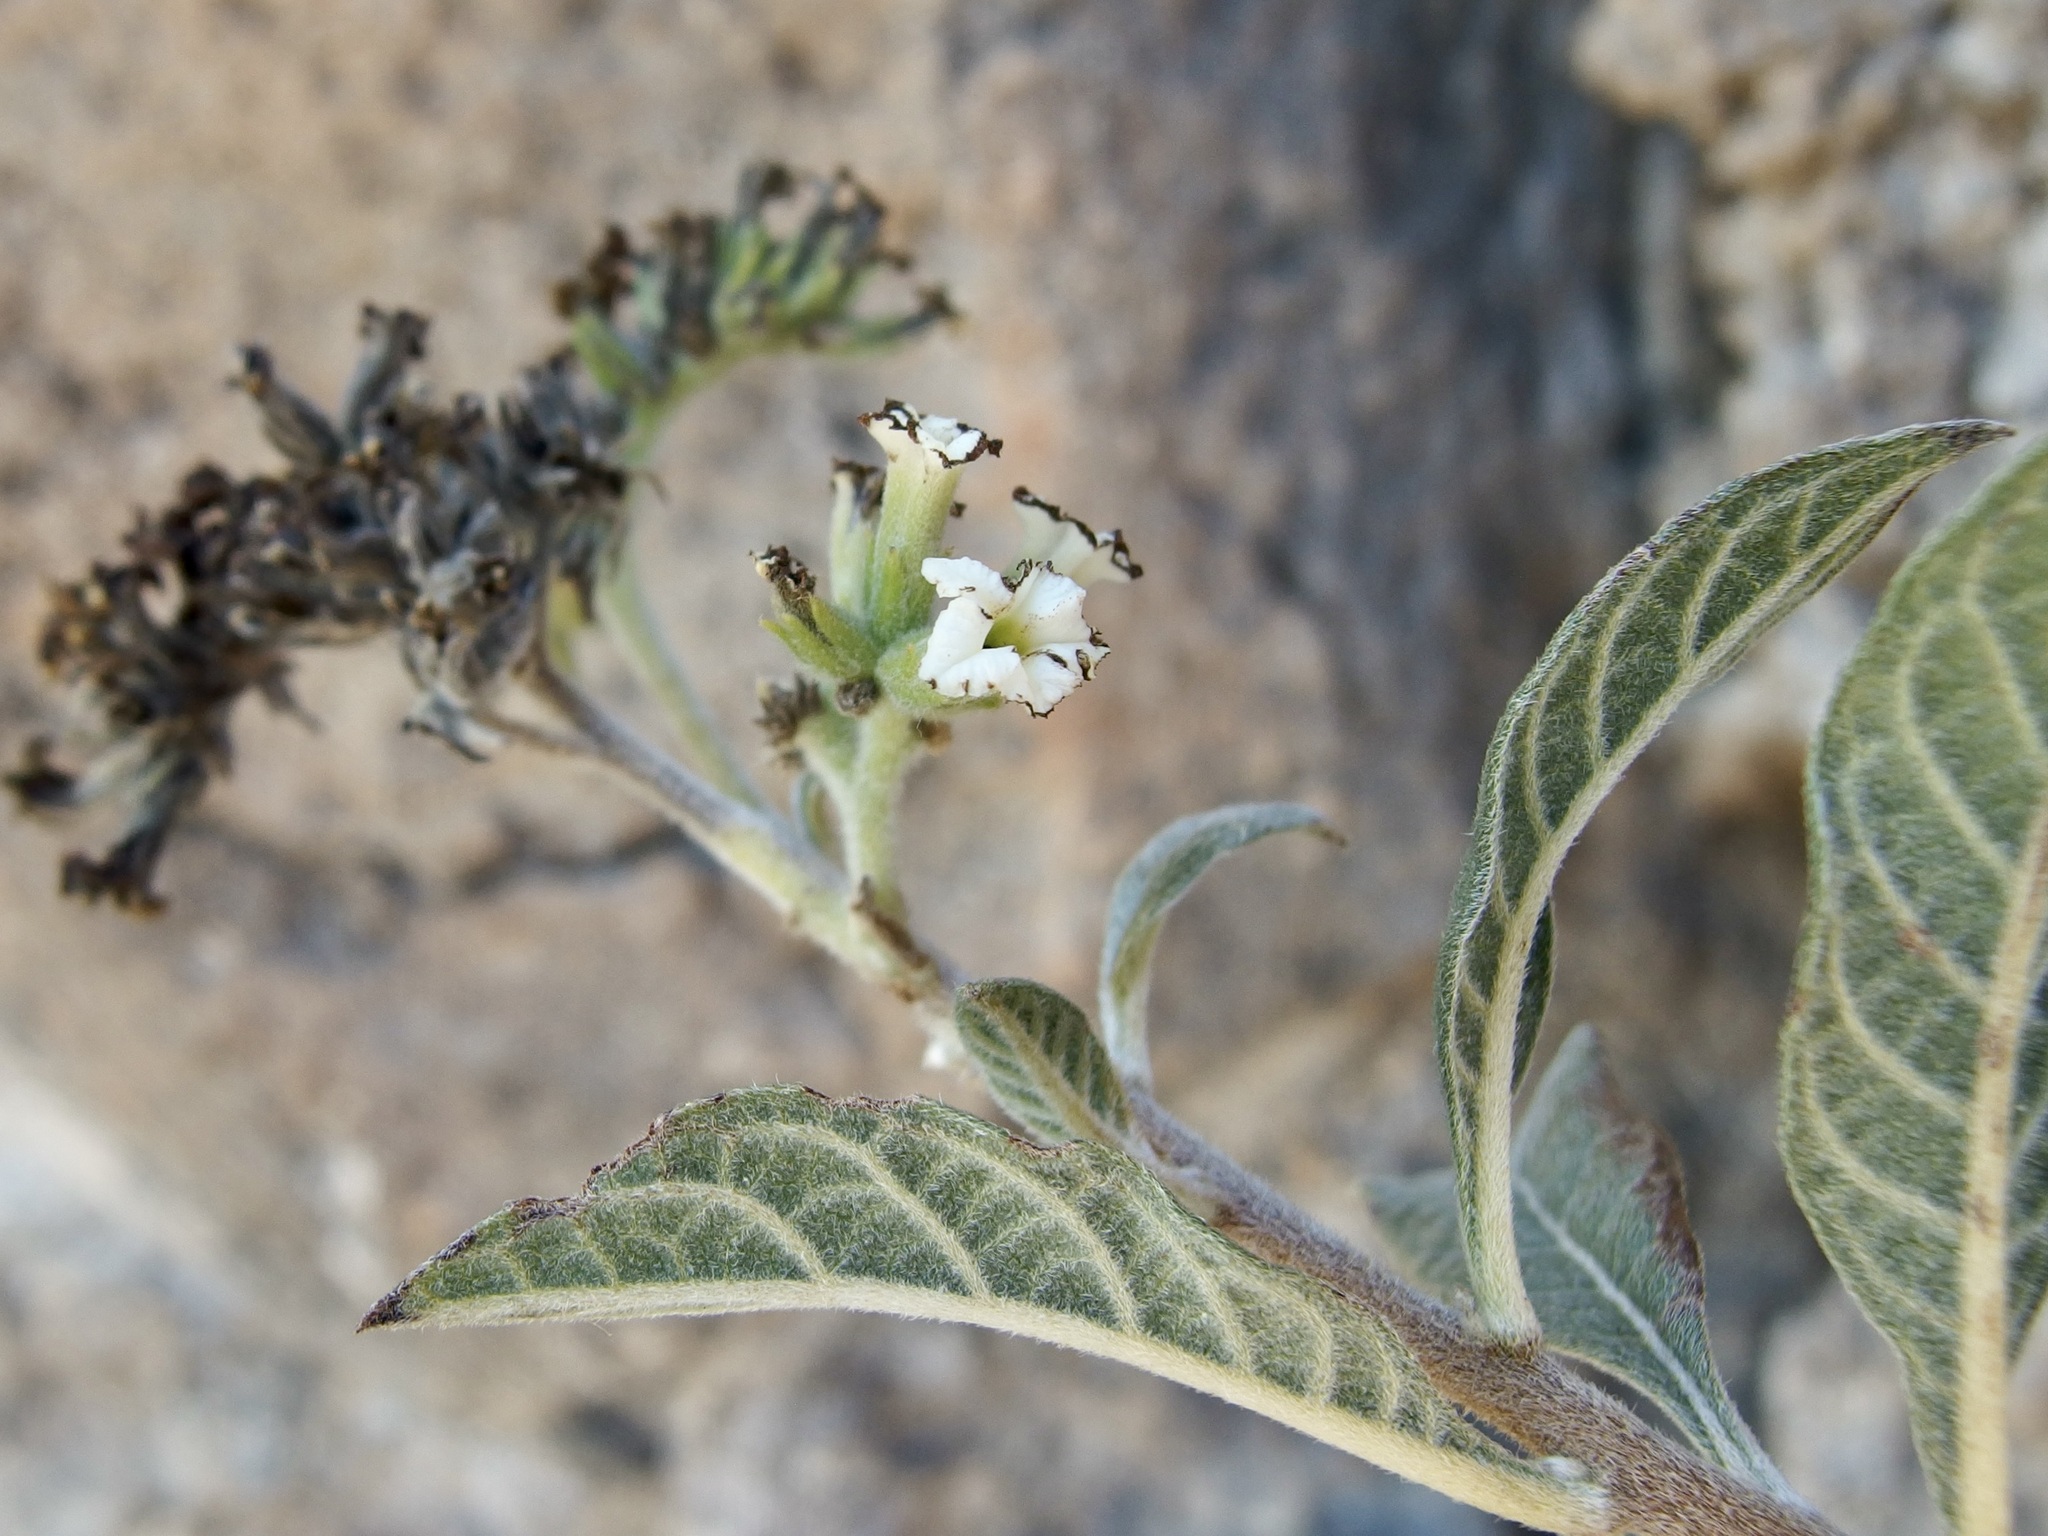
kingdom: Plantae
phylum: Tracheophyta
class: Magnoliopsida
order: Boraginales
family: Heliotropiaceae
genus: Tournefortia
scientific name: Tournefortia mutabilis
